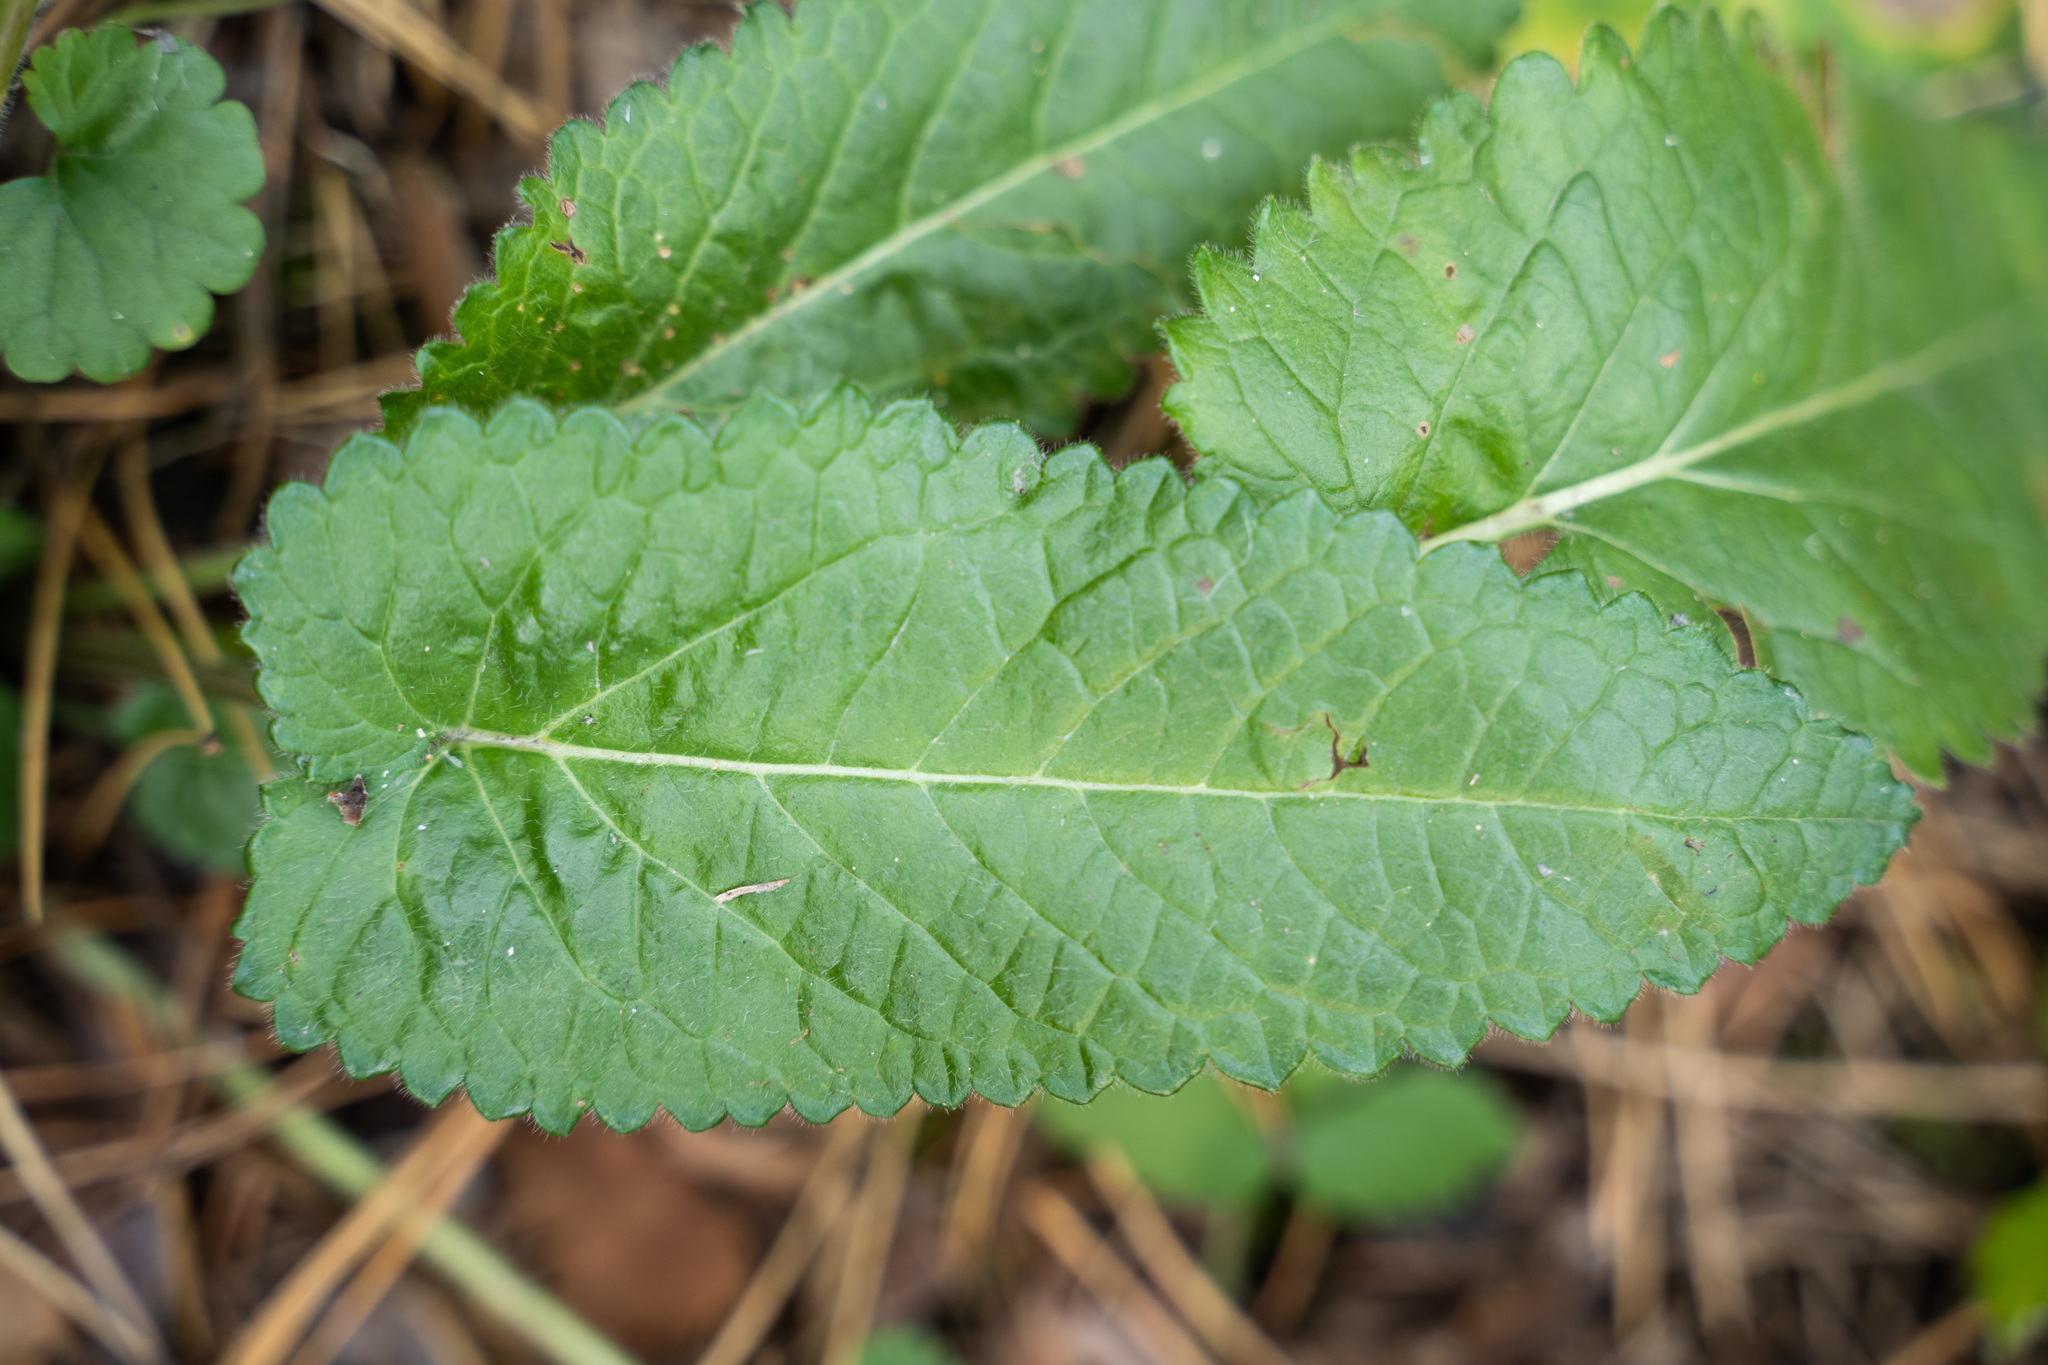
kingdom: Plantae
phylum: Tracheophyta
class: Magnoliopsida
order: Lamiales
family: Lamiaceae
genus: Betonica
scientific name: Betonica officinalis
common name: Bishop's-wort
